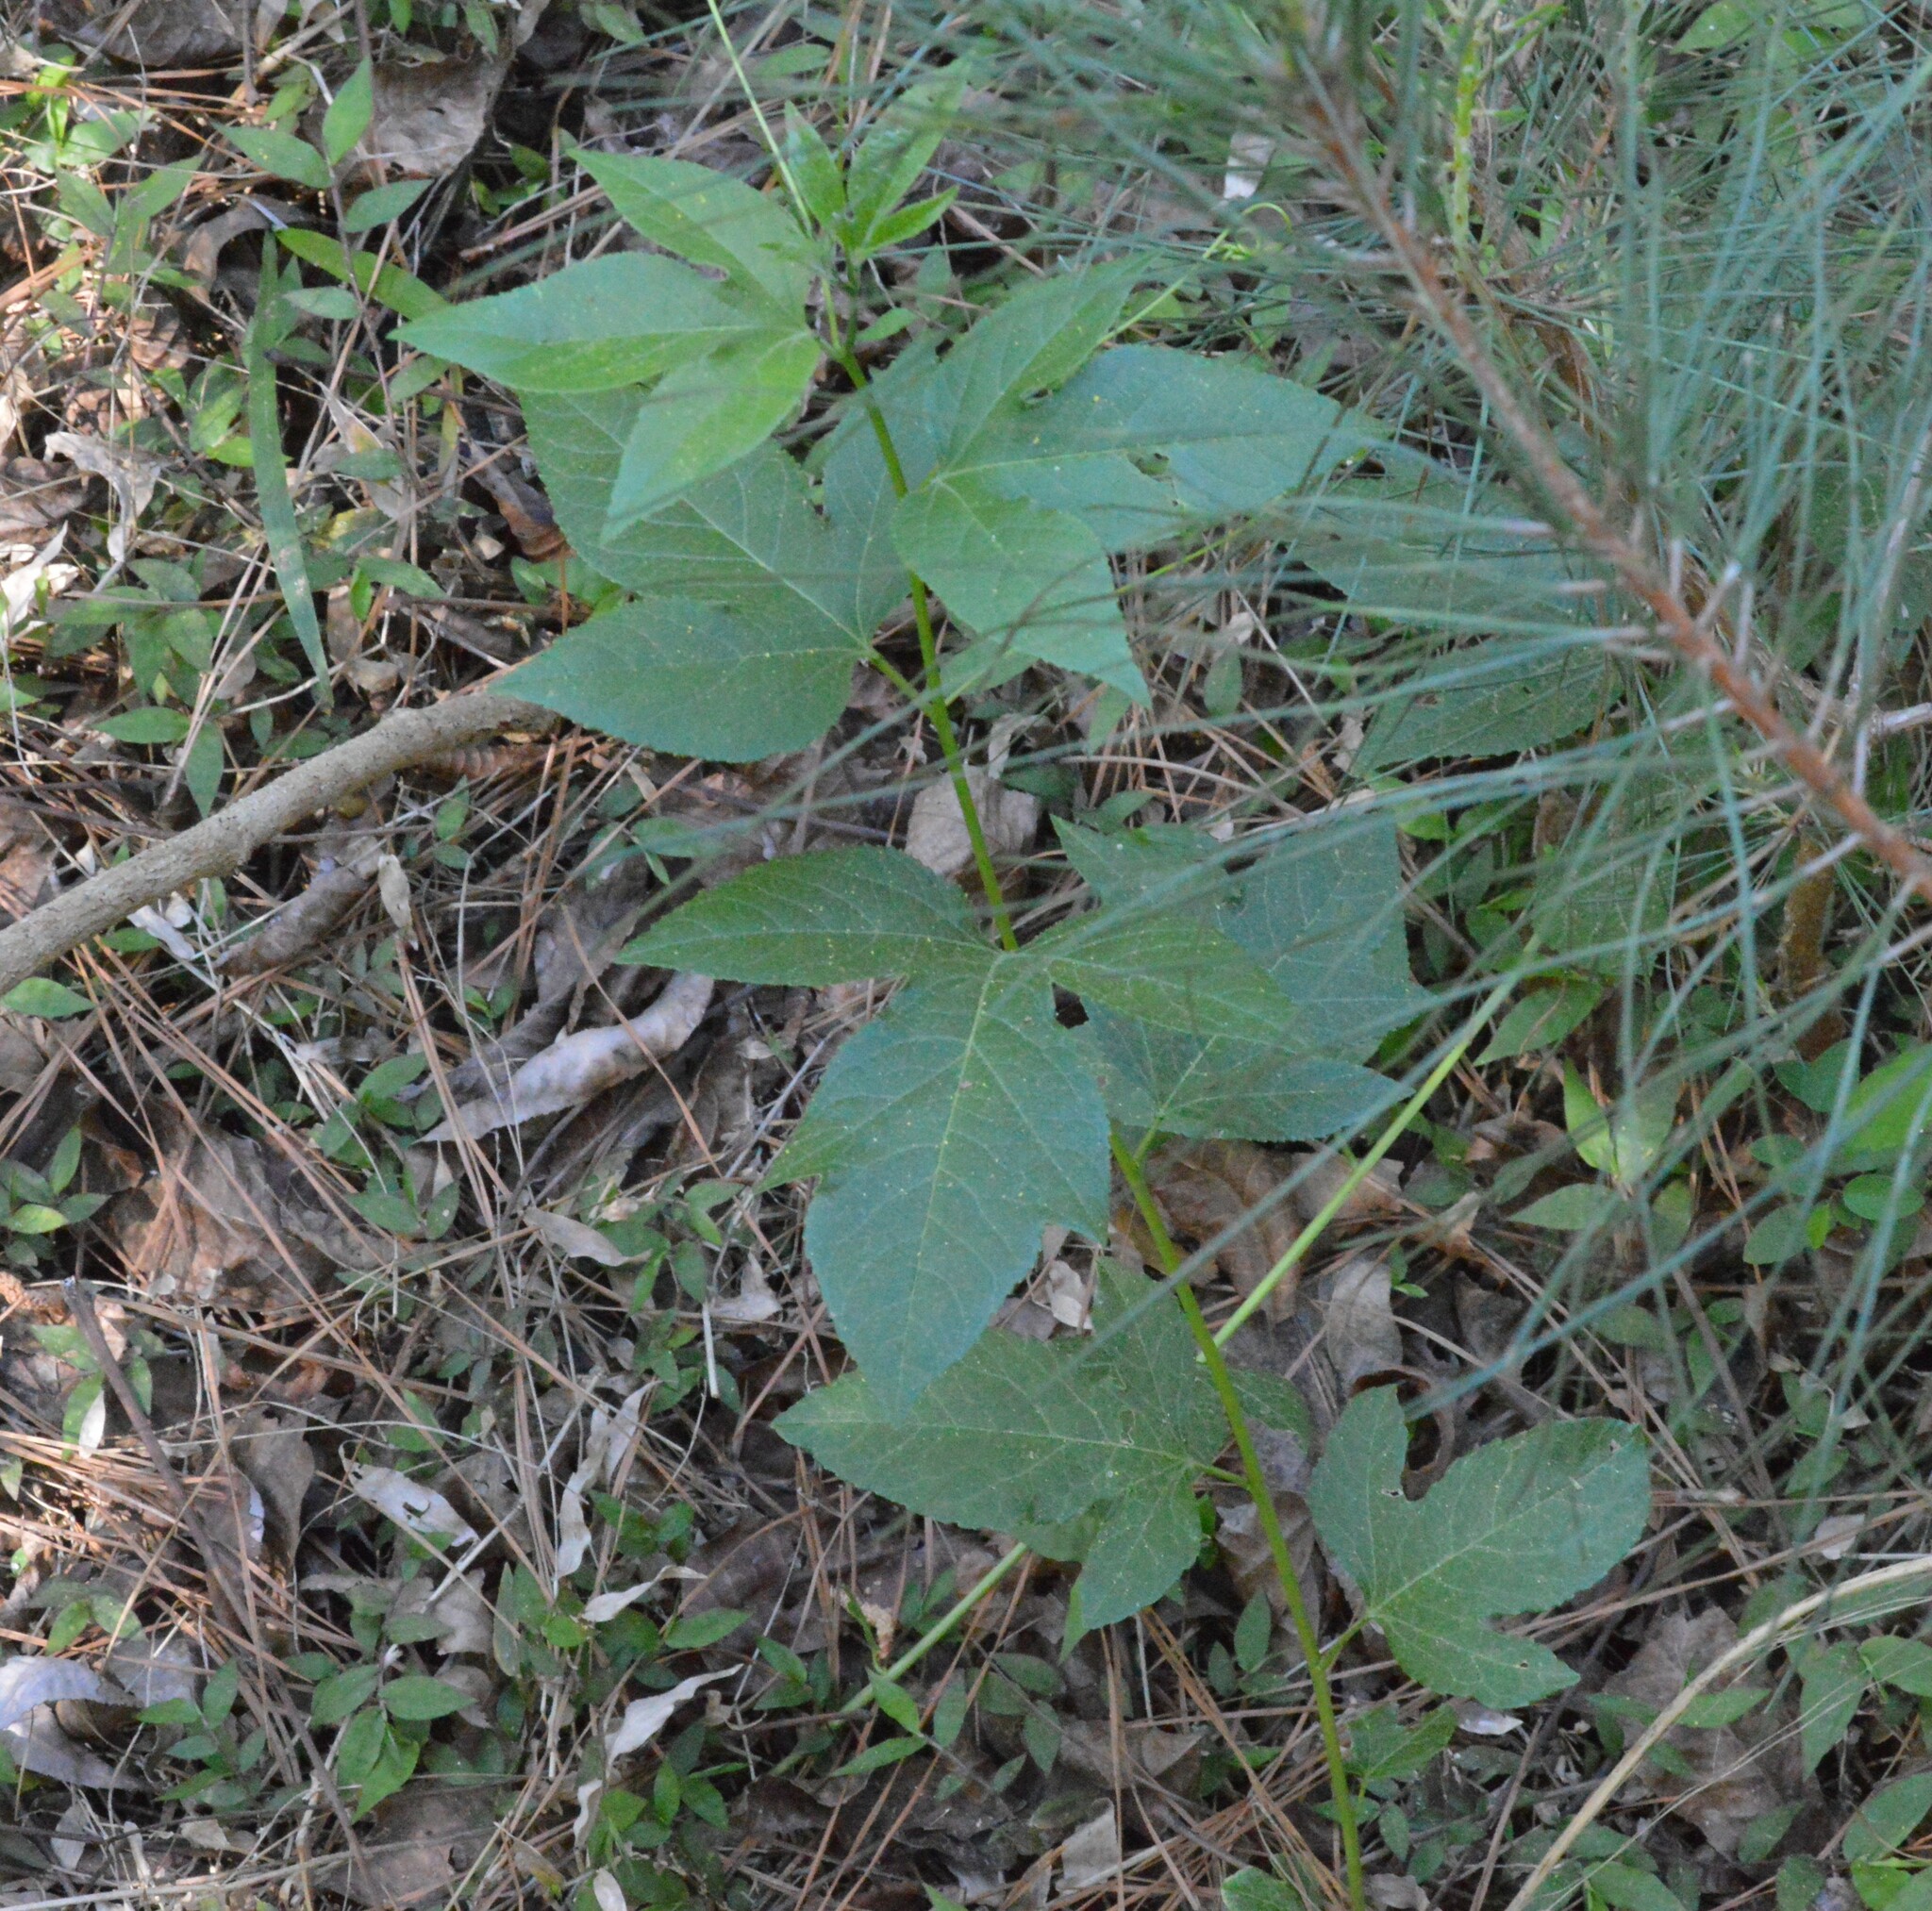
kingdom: Plantae
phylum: Tracheophyta
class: Magnoliopsida
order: Malpighiales
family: Passifloraceae
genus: Passiflora
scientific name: Passiflora incarnata
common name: Apricot-vine
